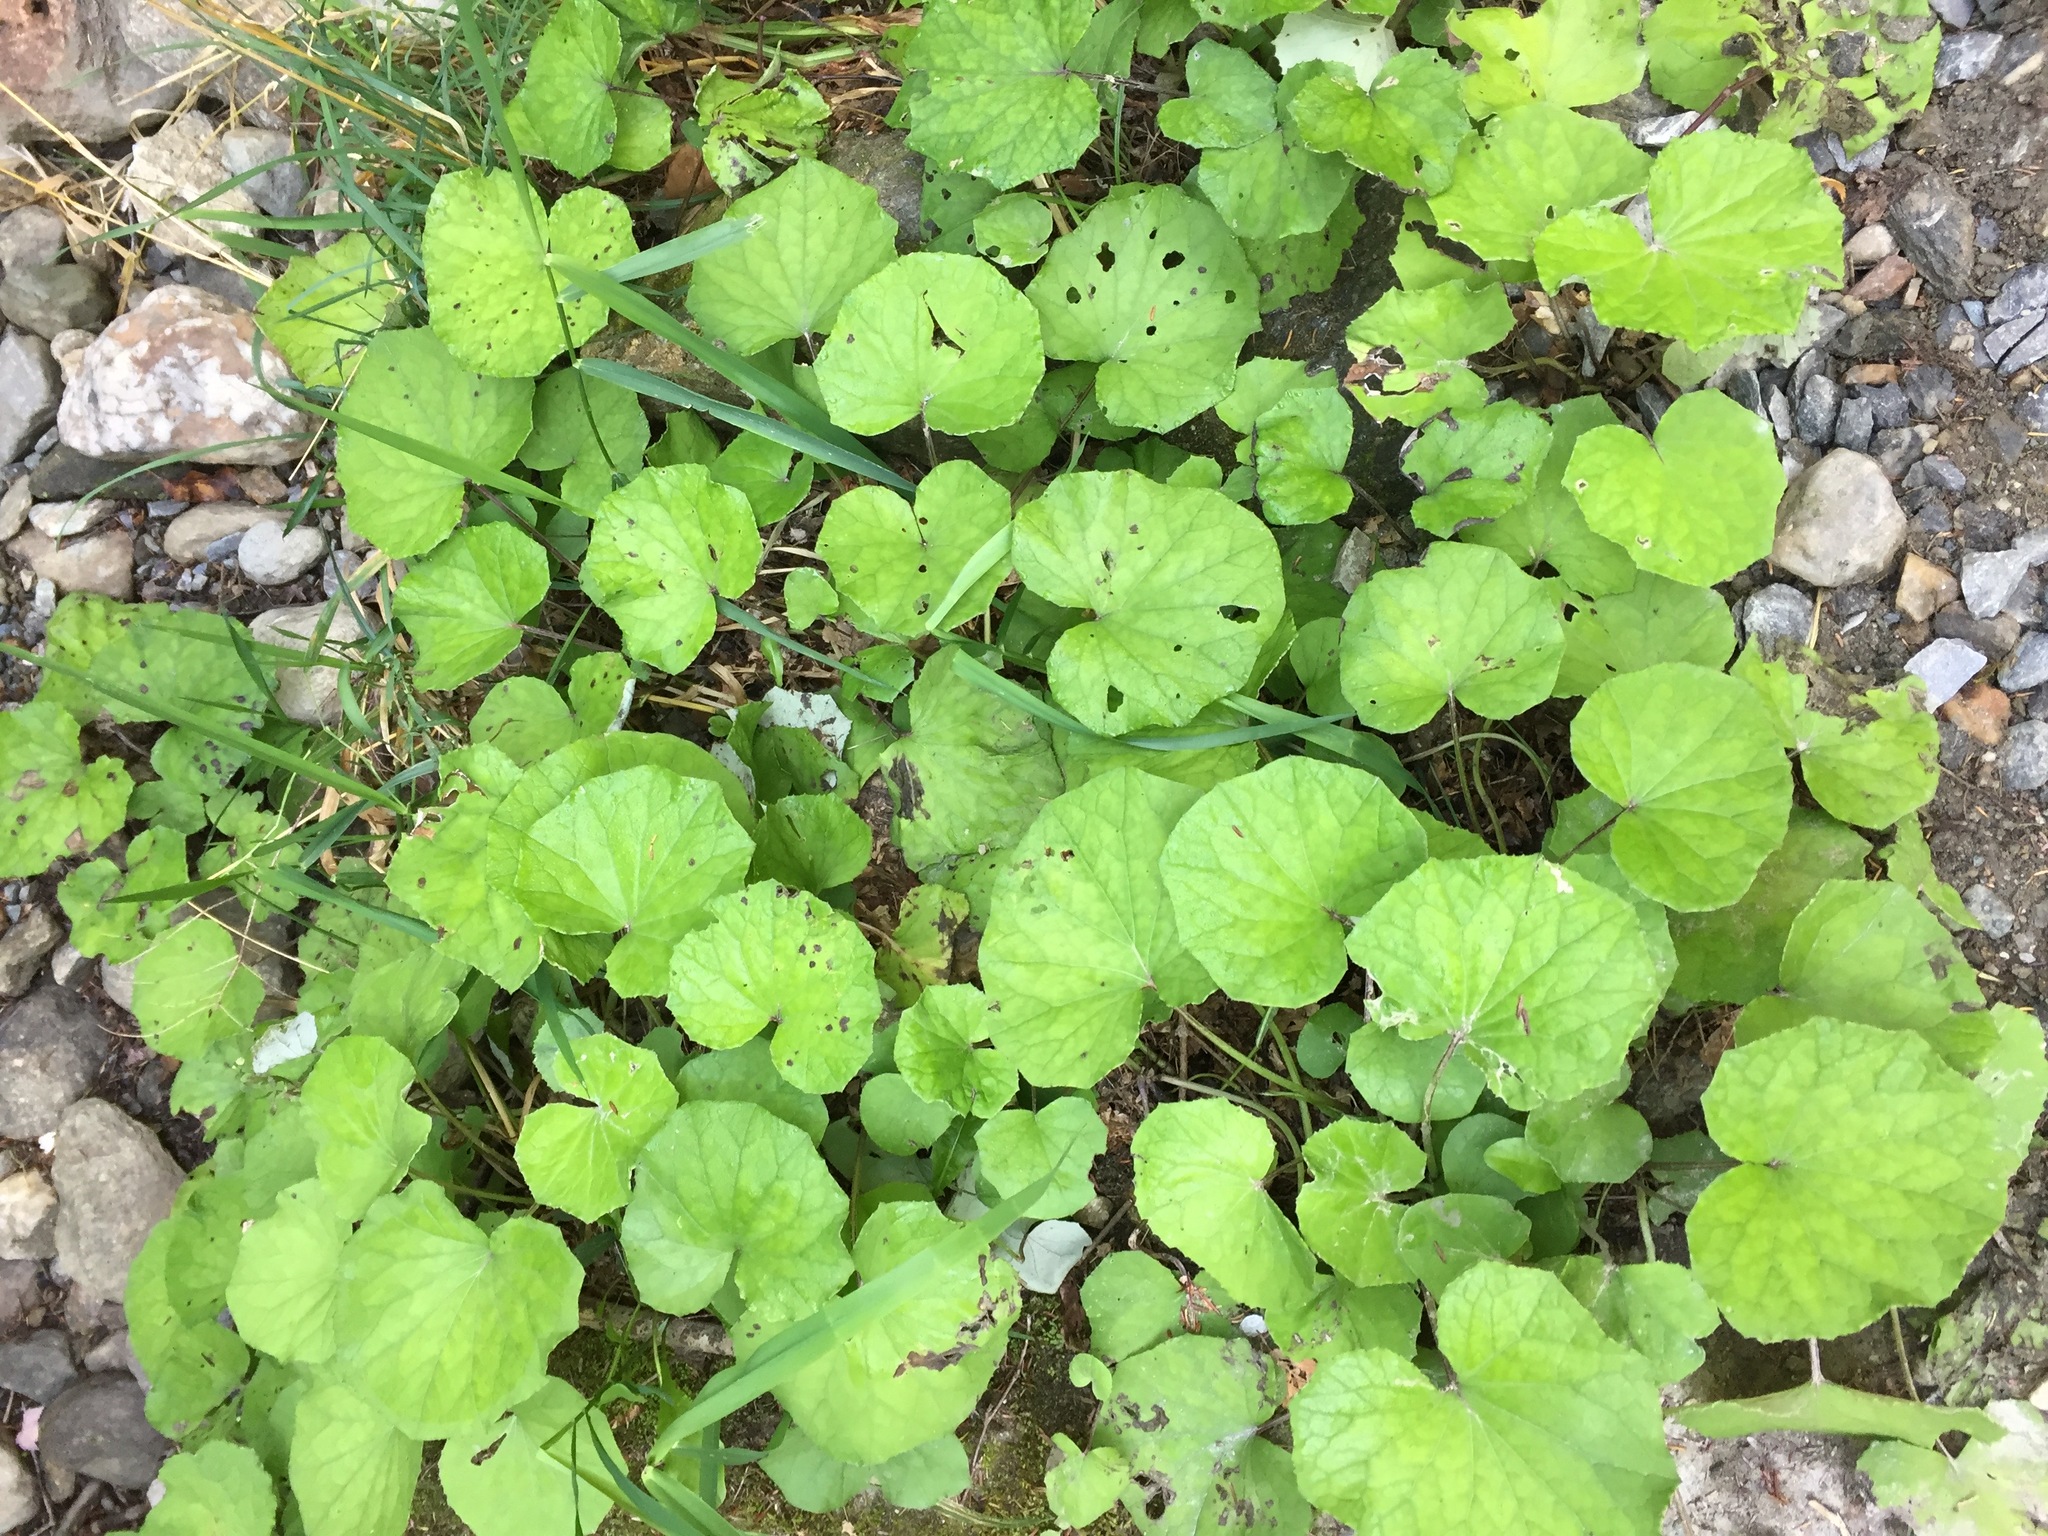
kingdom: Plantae
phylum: Tracheophyta
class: Magnoliopsida
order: Asterales
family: Asteraceae
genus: Tussilago
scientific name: Tussilago farfara
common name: Coltsfoot
